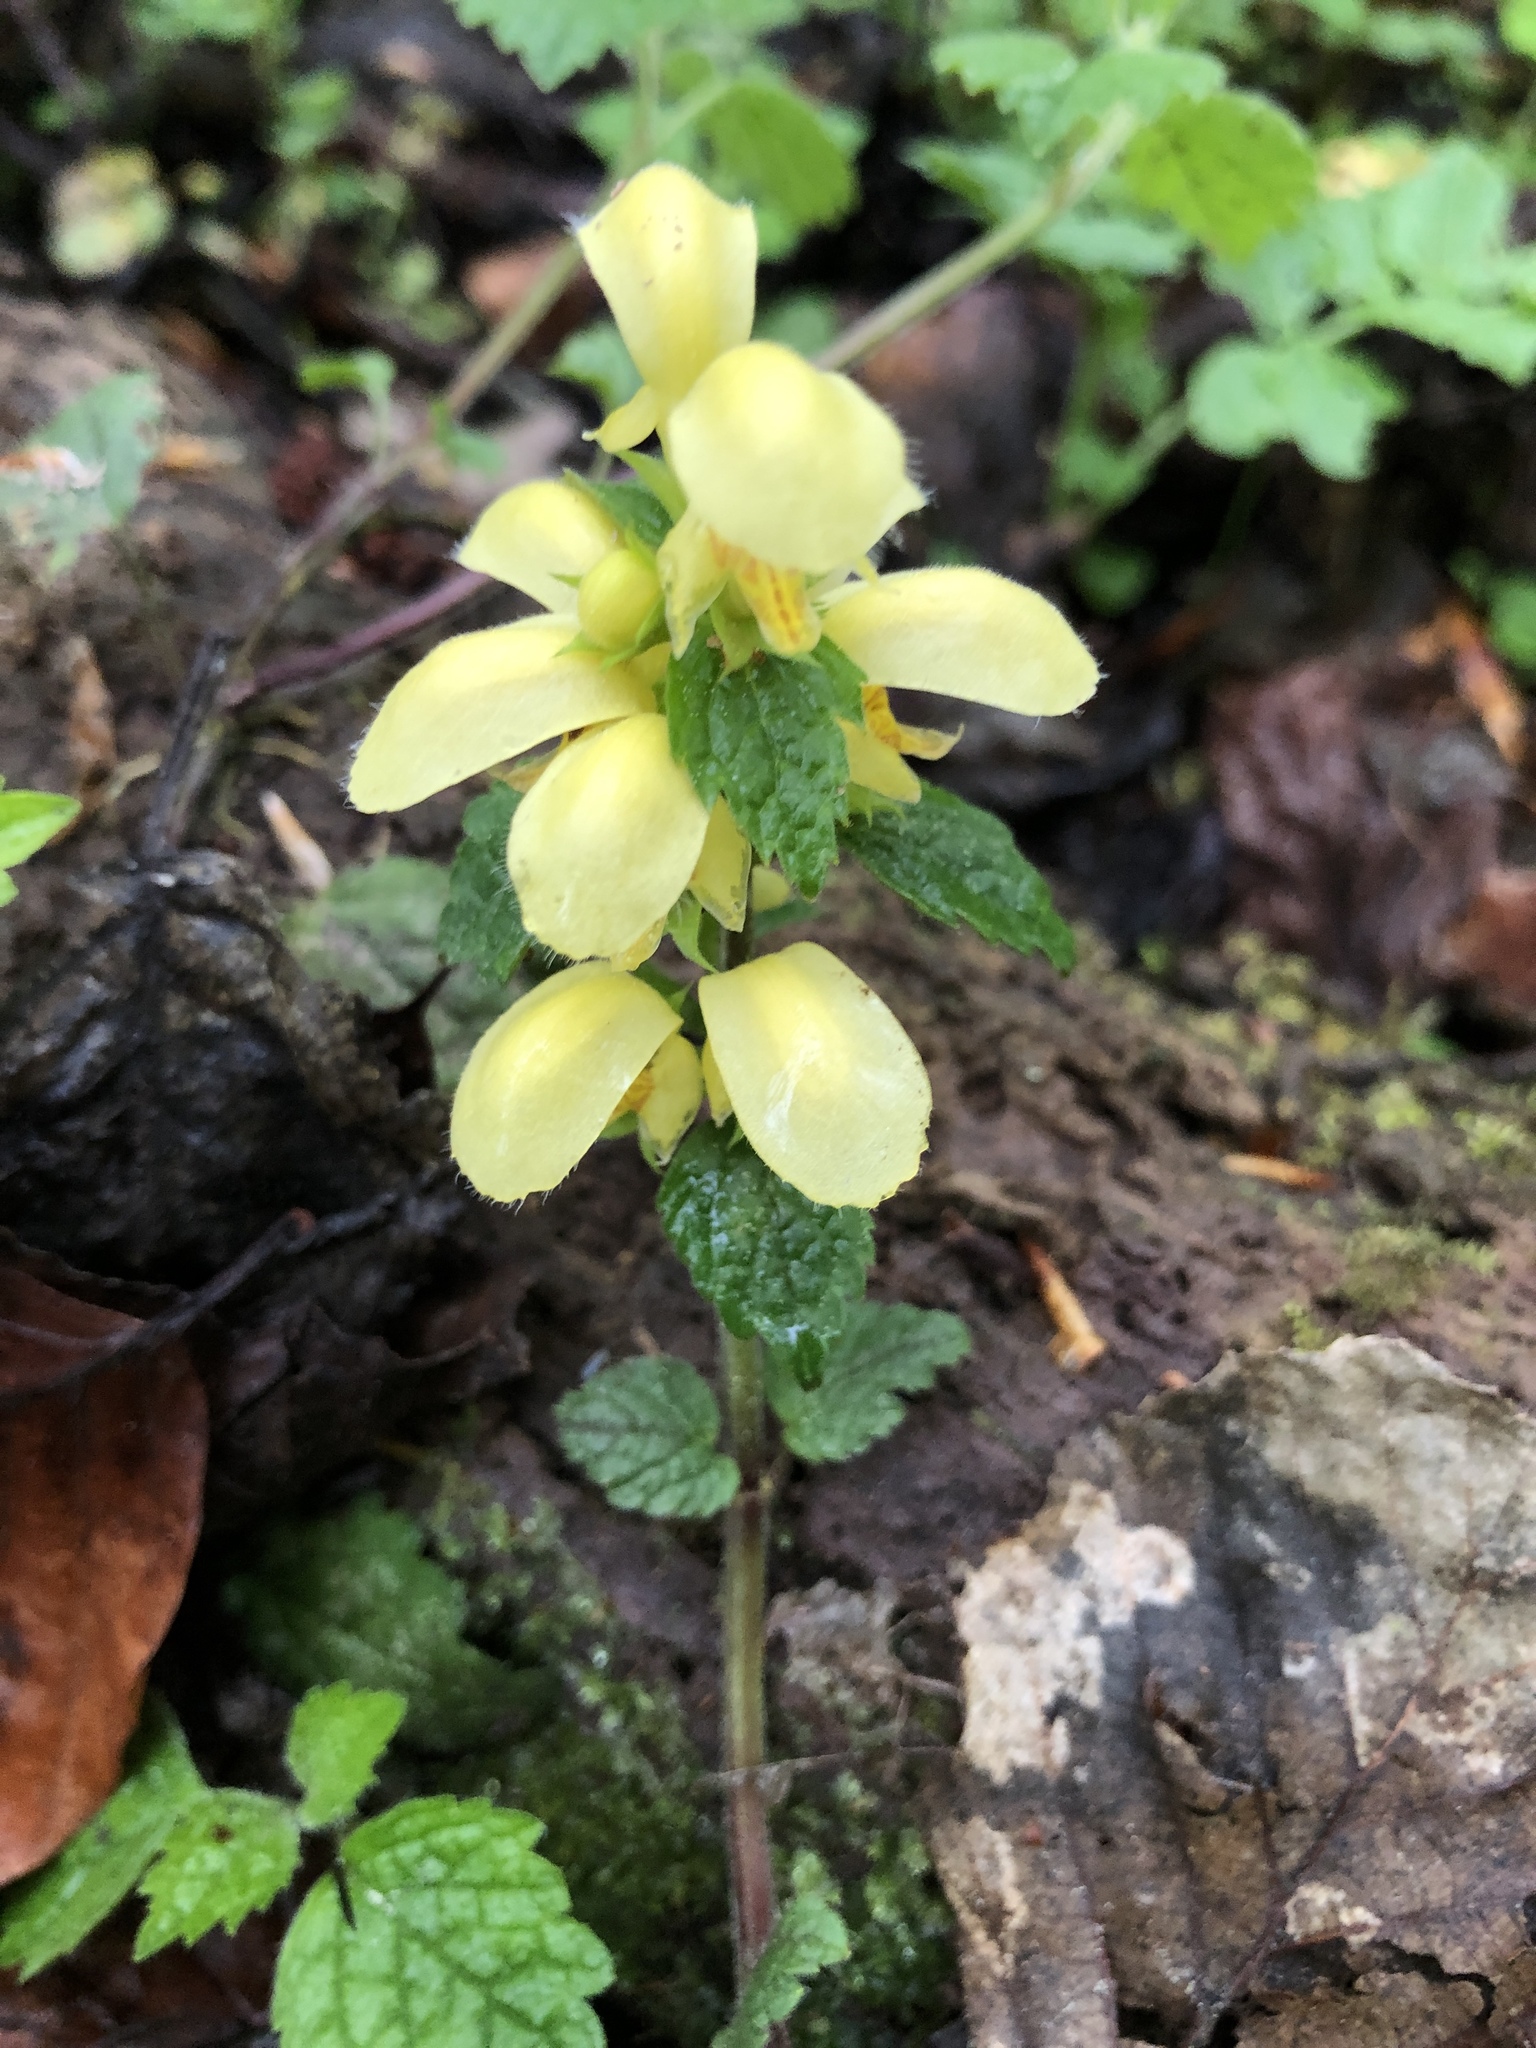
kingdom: Plantae
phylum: Tracheophyta
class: Magnoliopsida
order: Lamiales
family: Lamiaceae
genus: Lamium
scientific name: Lamium galeobdolon
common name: Yellow archangel
